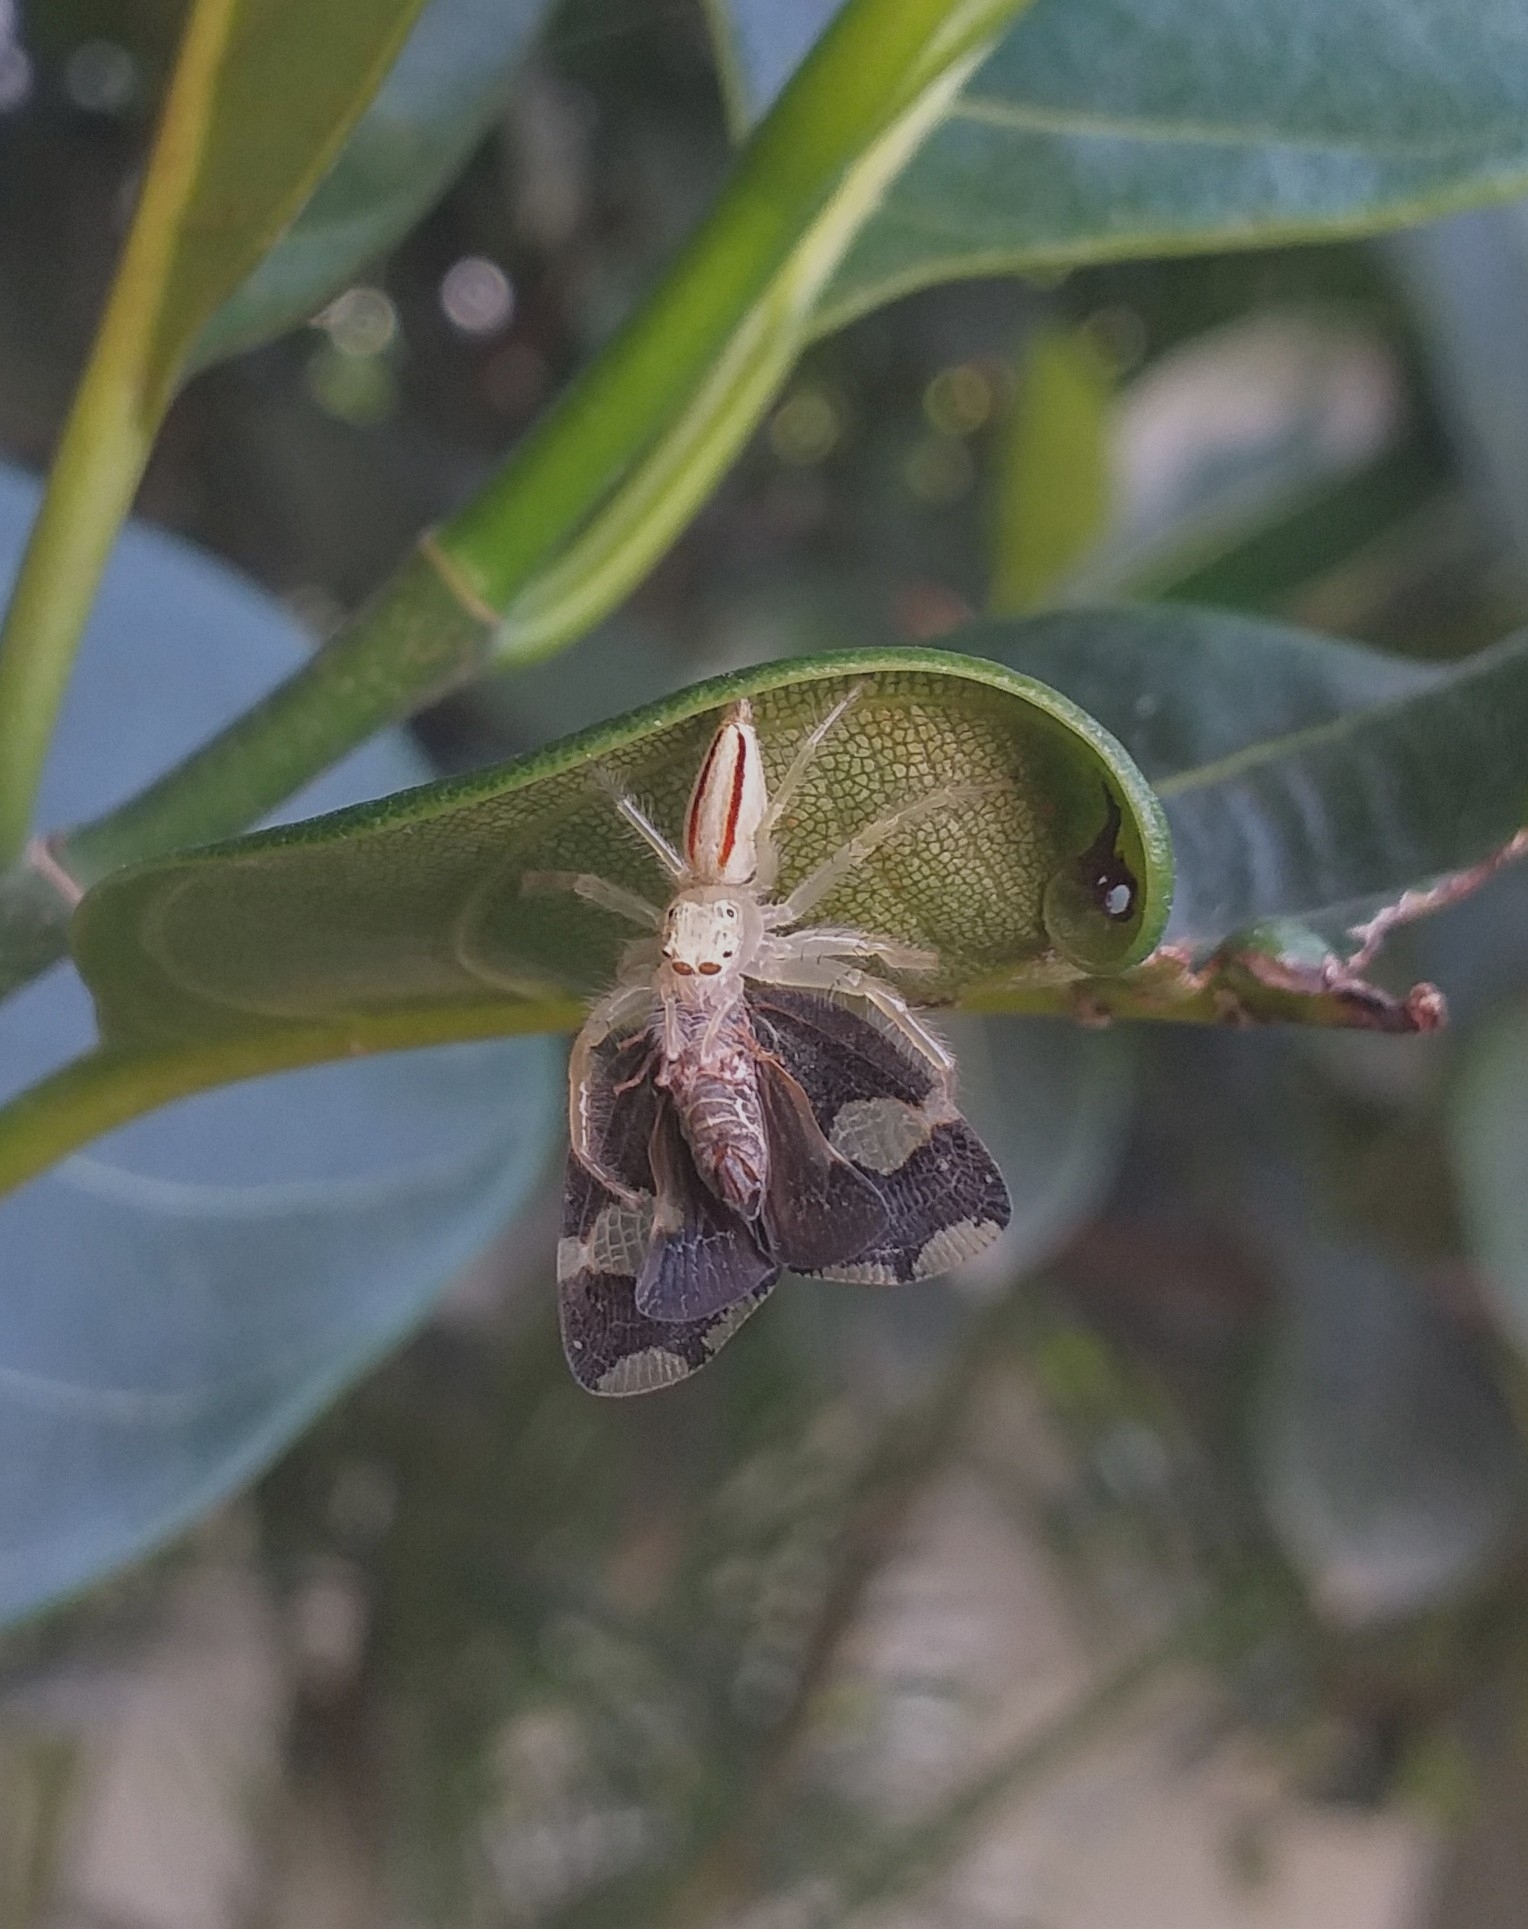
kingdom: Animalia
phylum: Arthropoda
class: Arachnida
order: Araneae
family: Salticidae
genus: Telamonia
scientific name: Telamonia dimidiata
